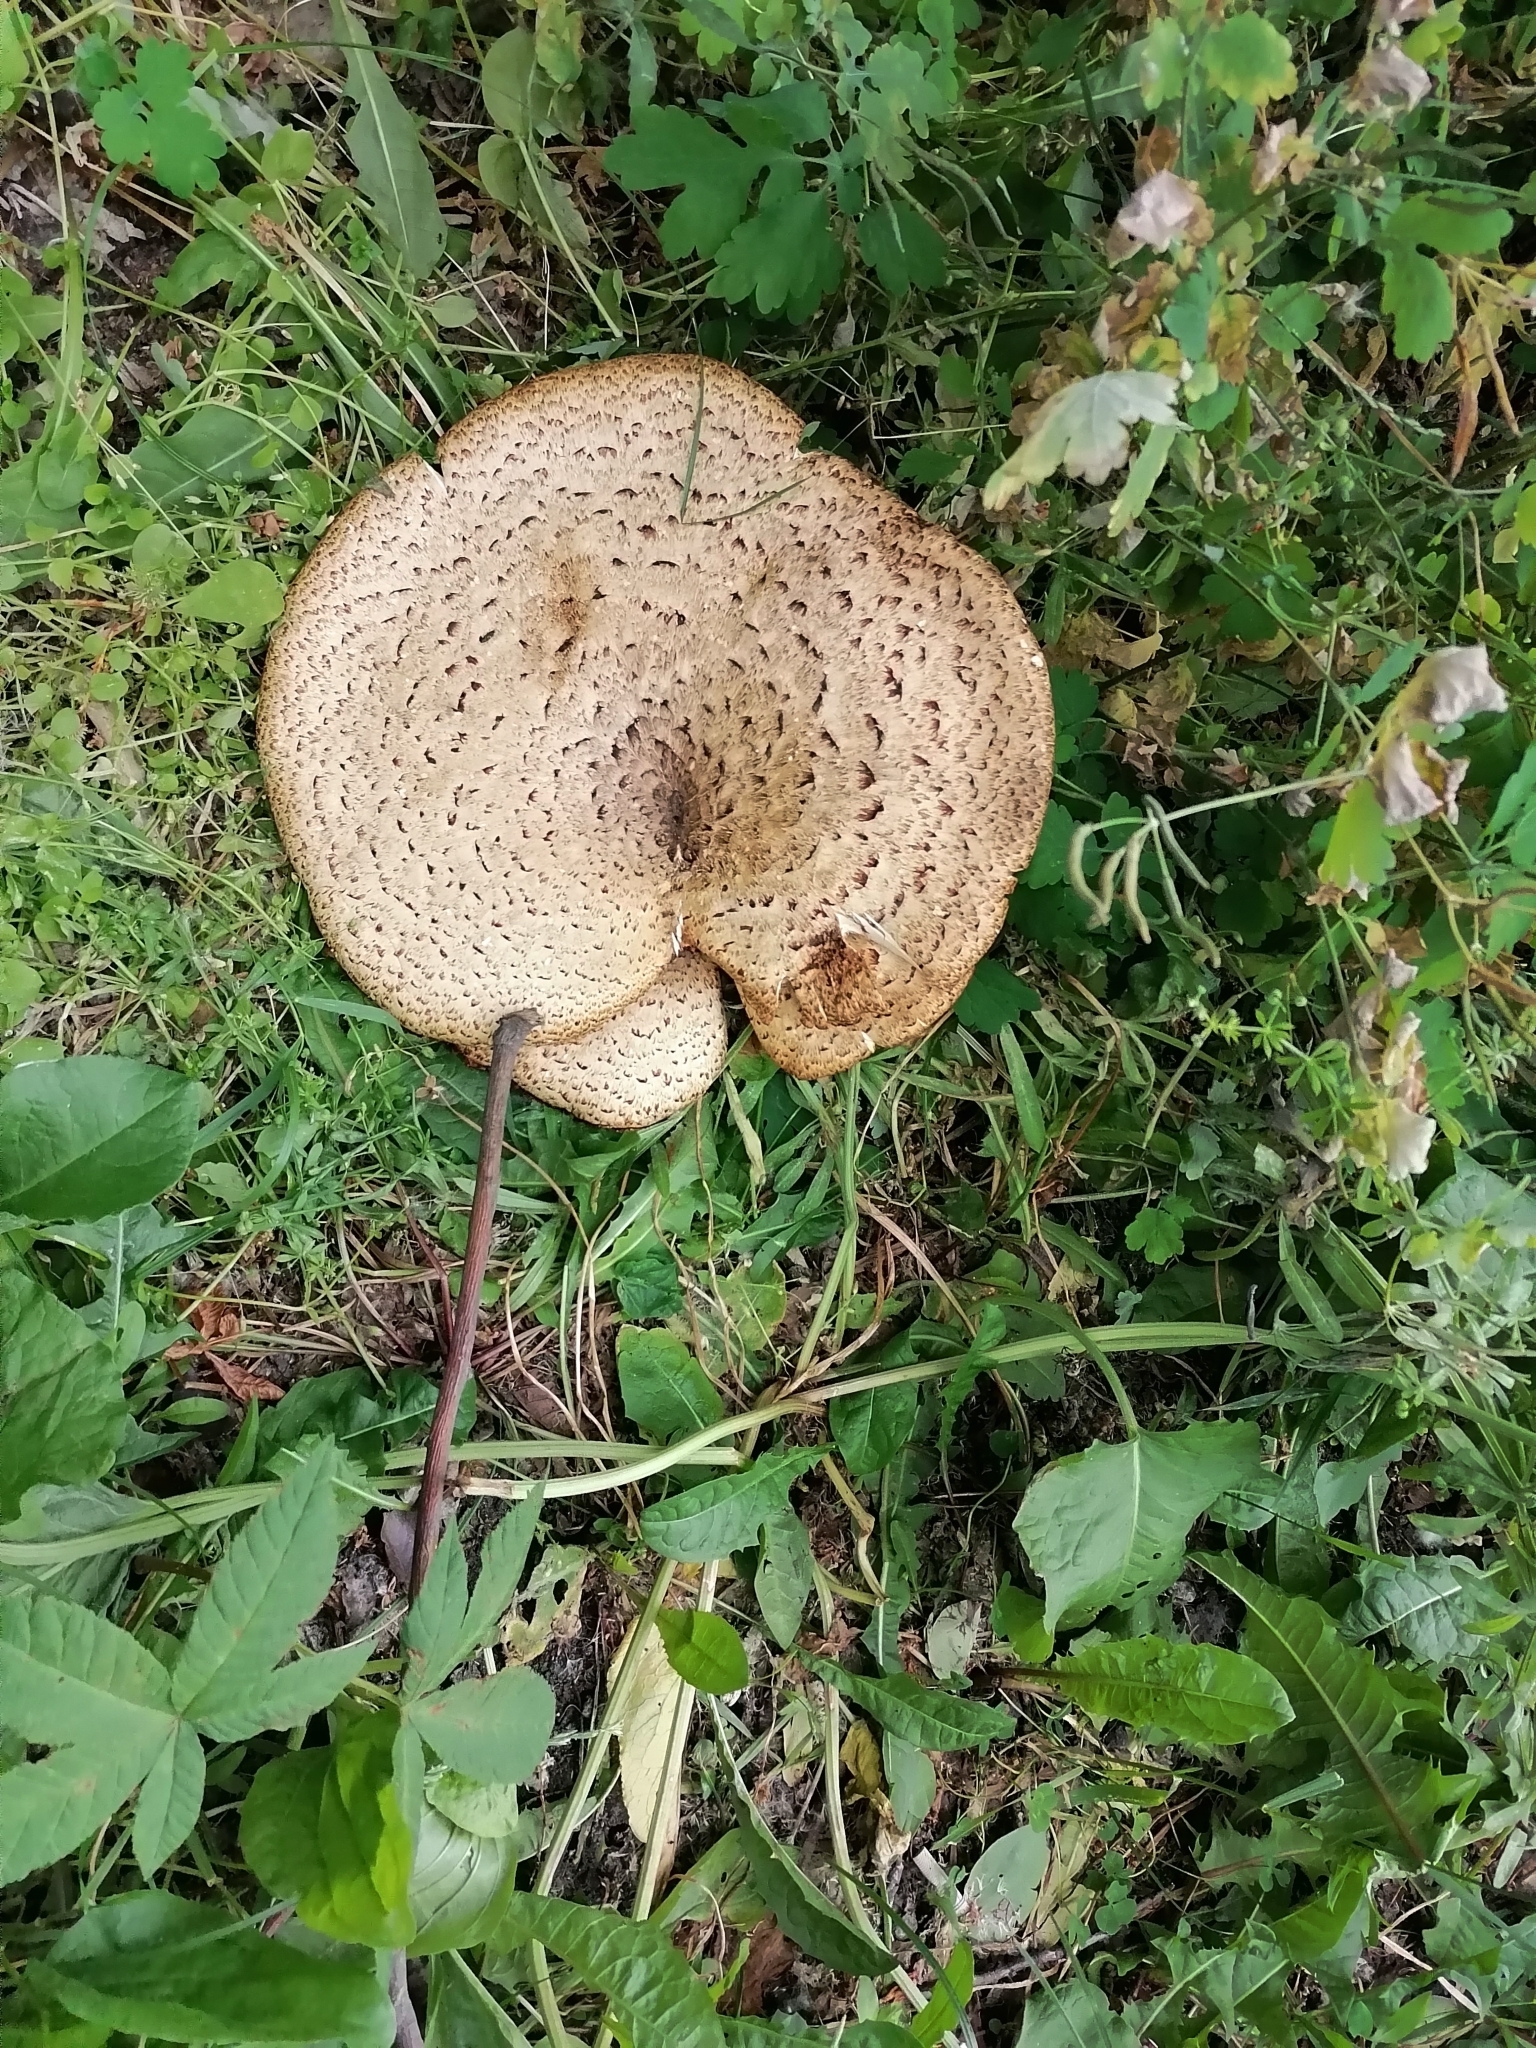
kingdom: Fungi
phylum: Basidiomycota
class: Agaricomycetes
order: Polyporales
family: Polyporaceae
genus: Cerioporus
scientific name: Cerioporus squamosus
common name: Dryad's saddle
